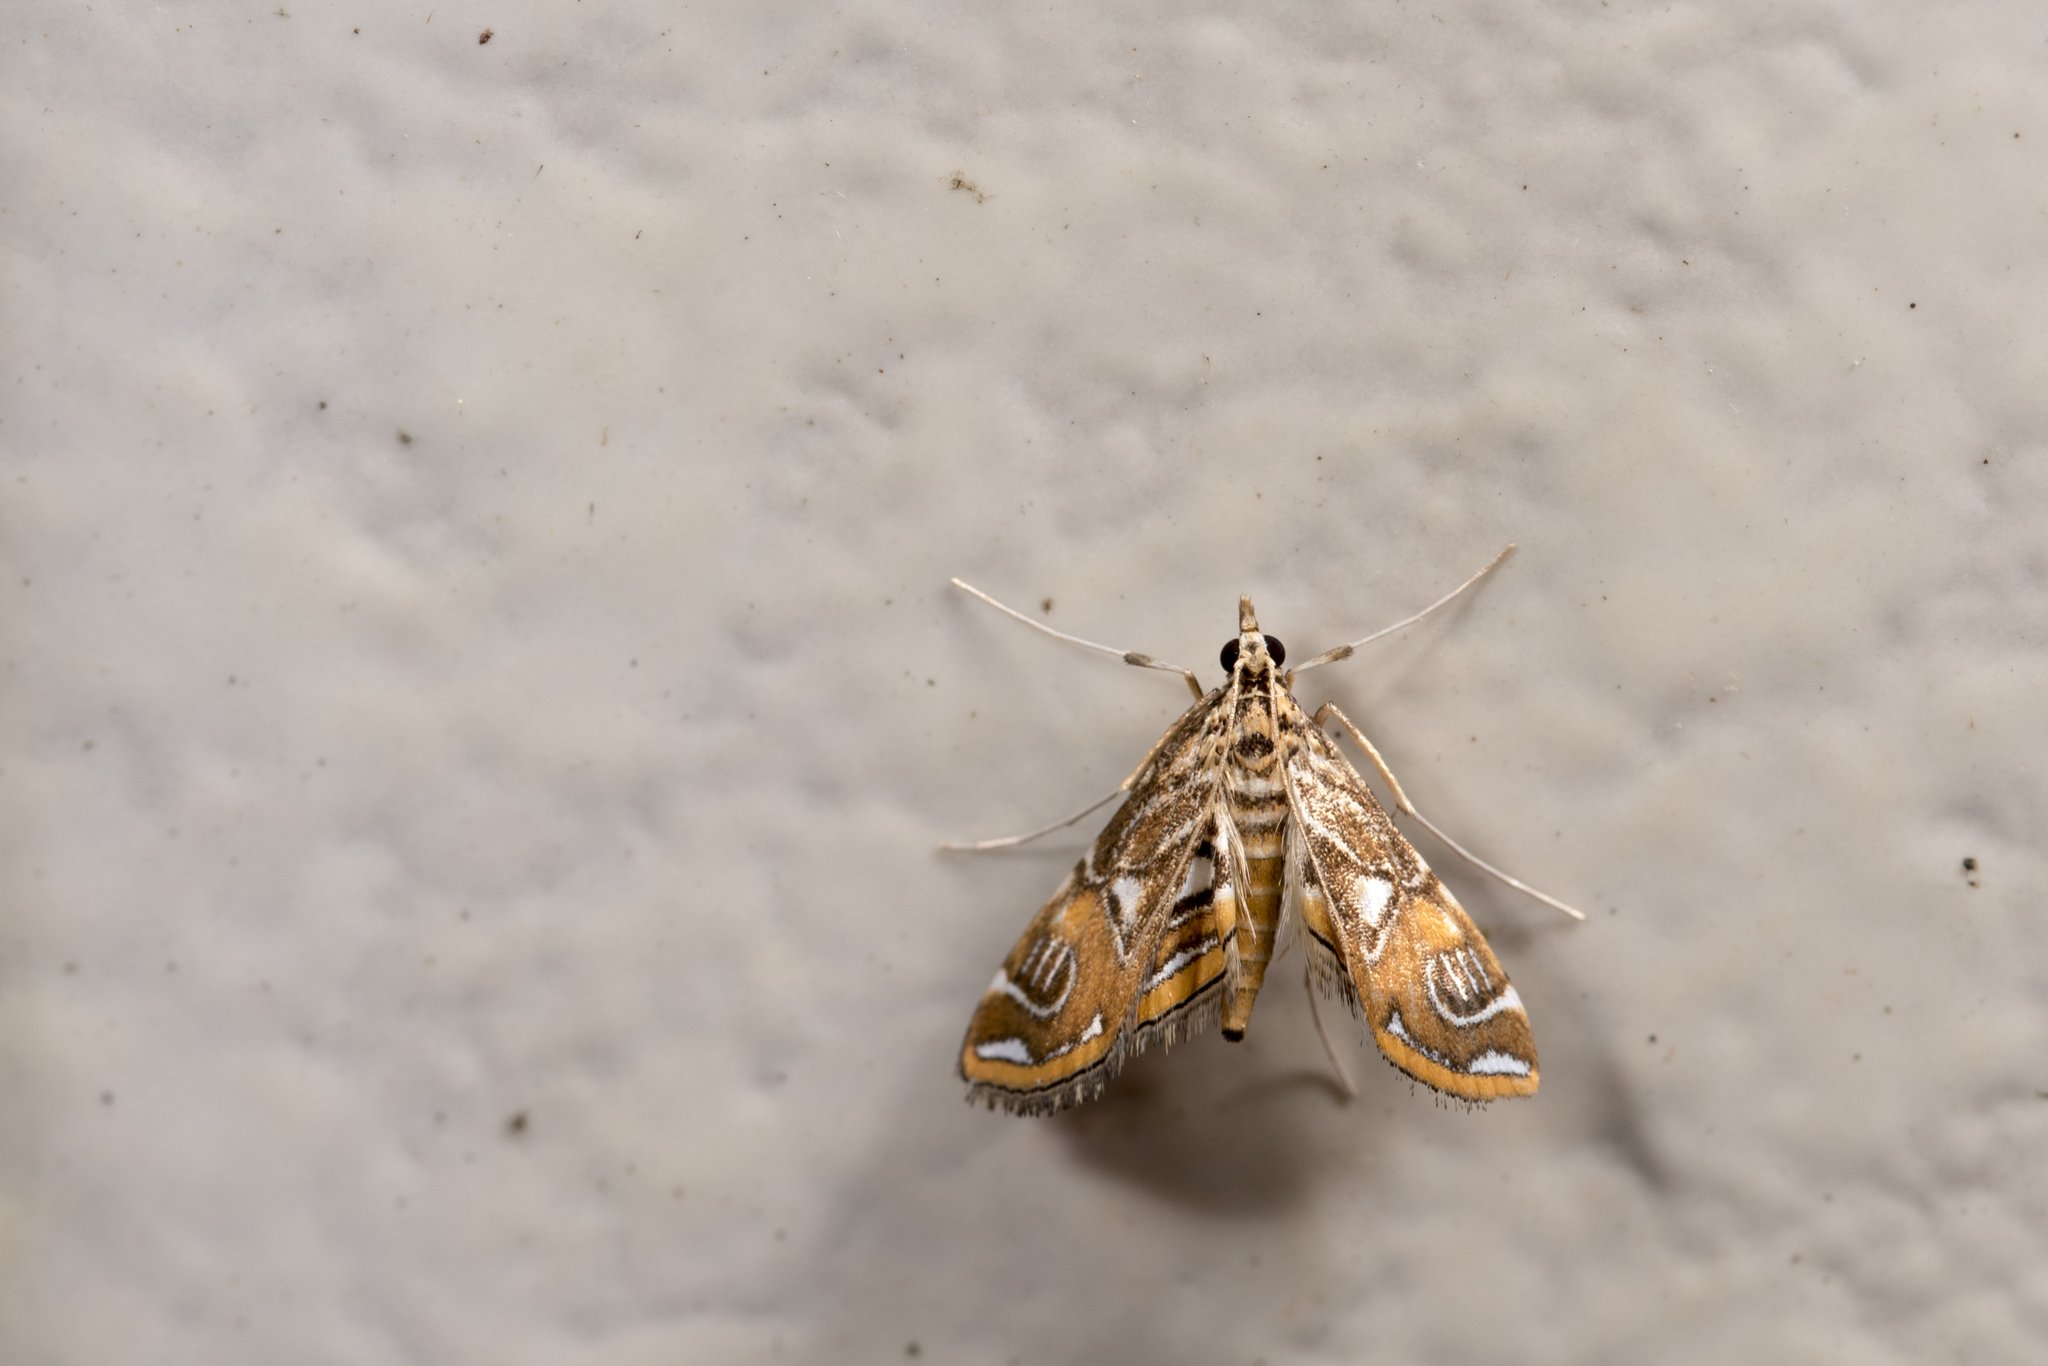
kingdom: Animalia
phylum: Arthropoda
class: Insecta
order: Lepidoptera
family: Crambidae
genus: Paracymoriza
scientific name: Paracymoriza cataclystalis
